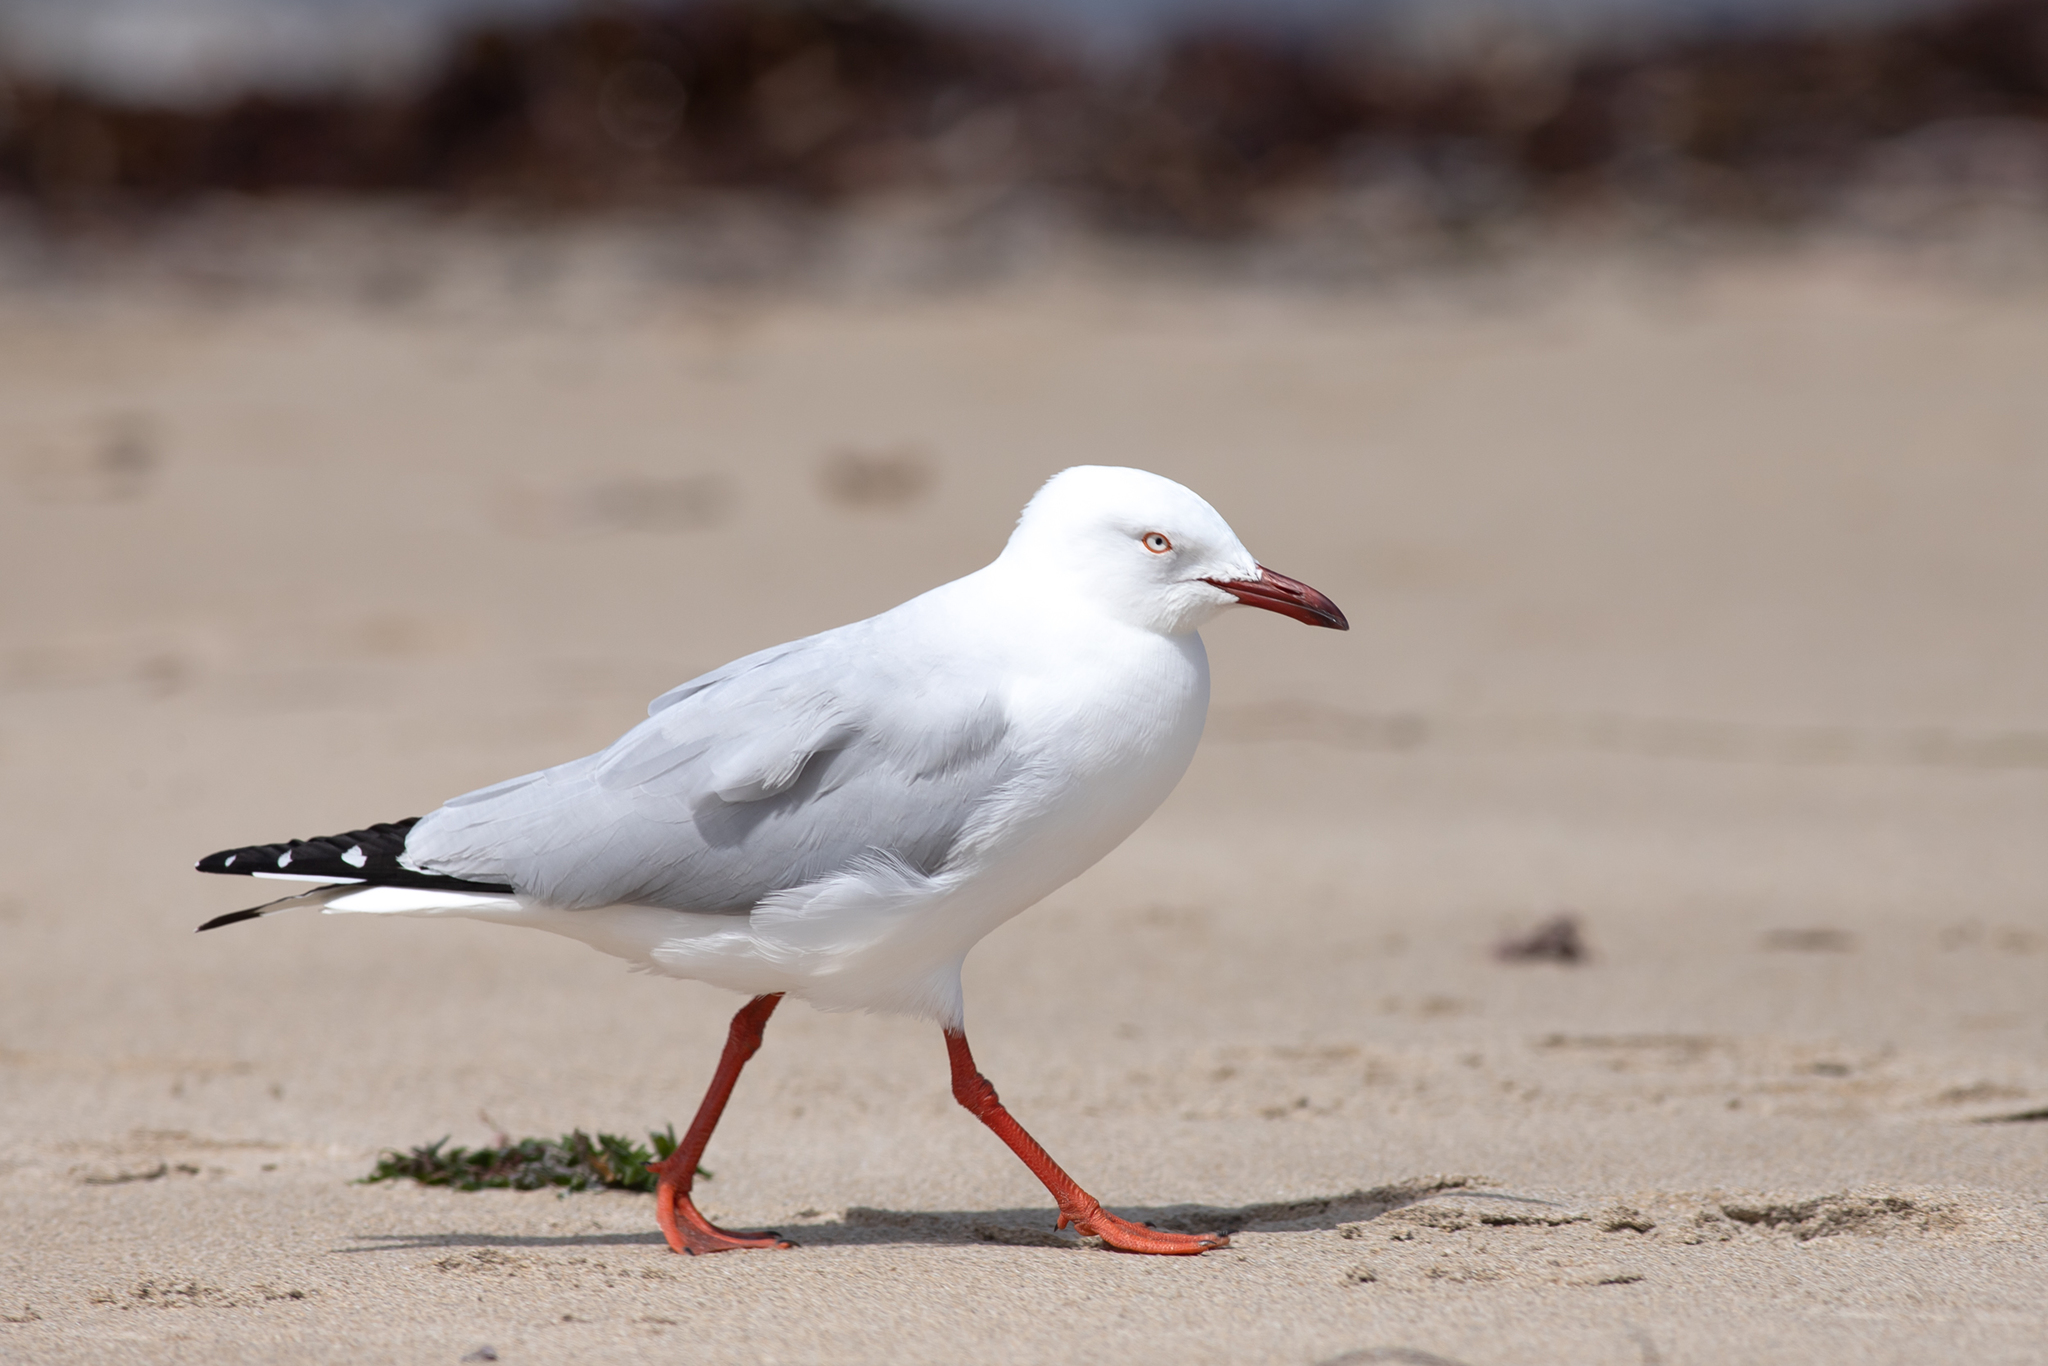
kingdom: Animalia
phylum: Chordata
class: Aves
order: Charadriiformes
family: Laridae
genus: Chroicocephalus
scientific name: Chroicocephalus novaehollandiae
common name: Silver gull
